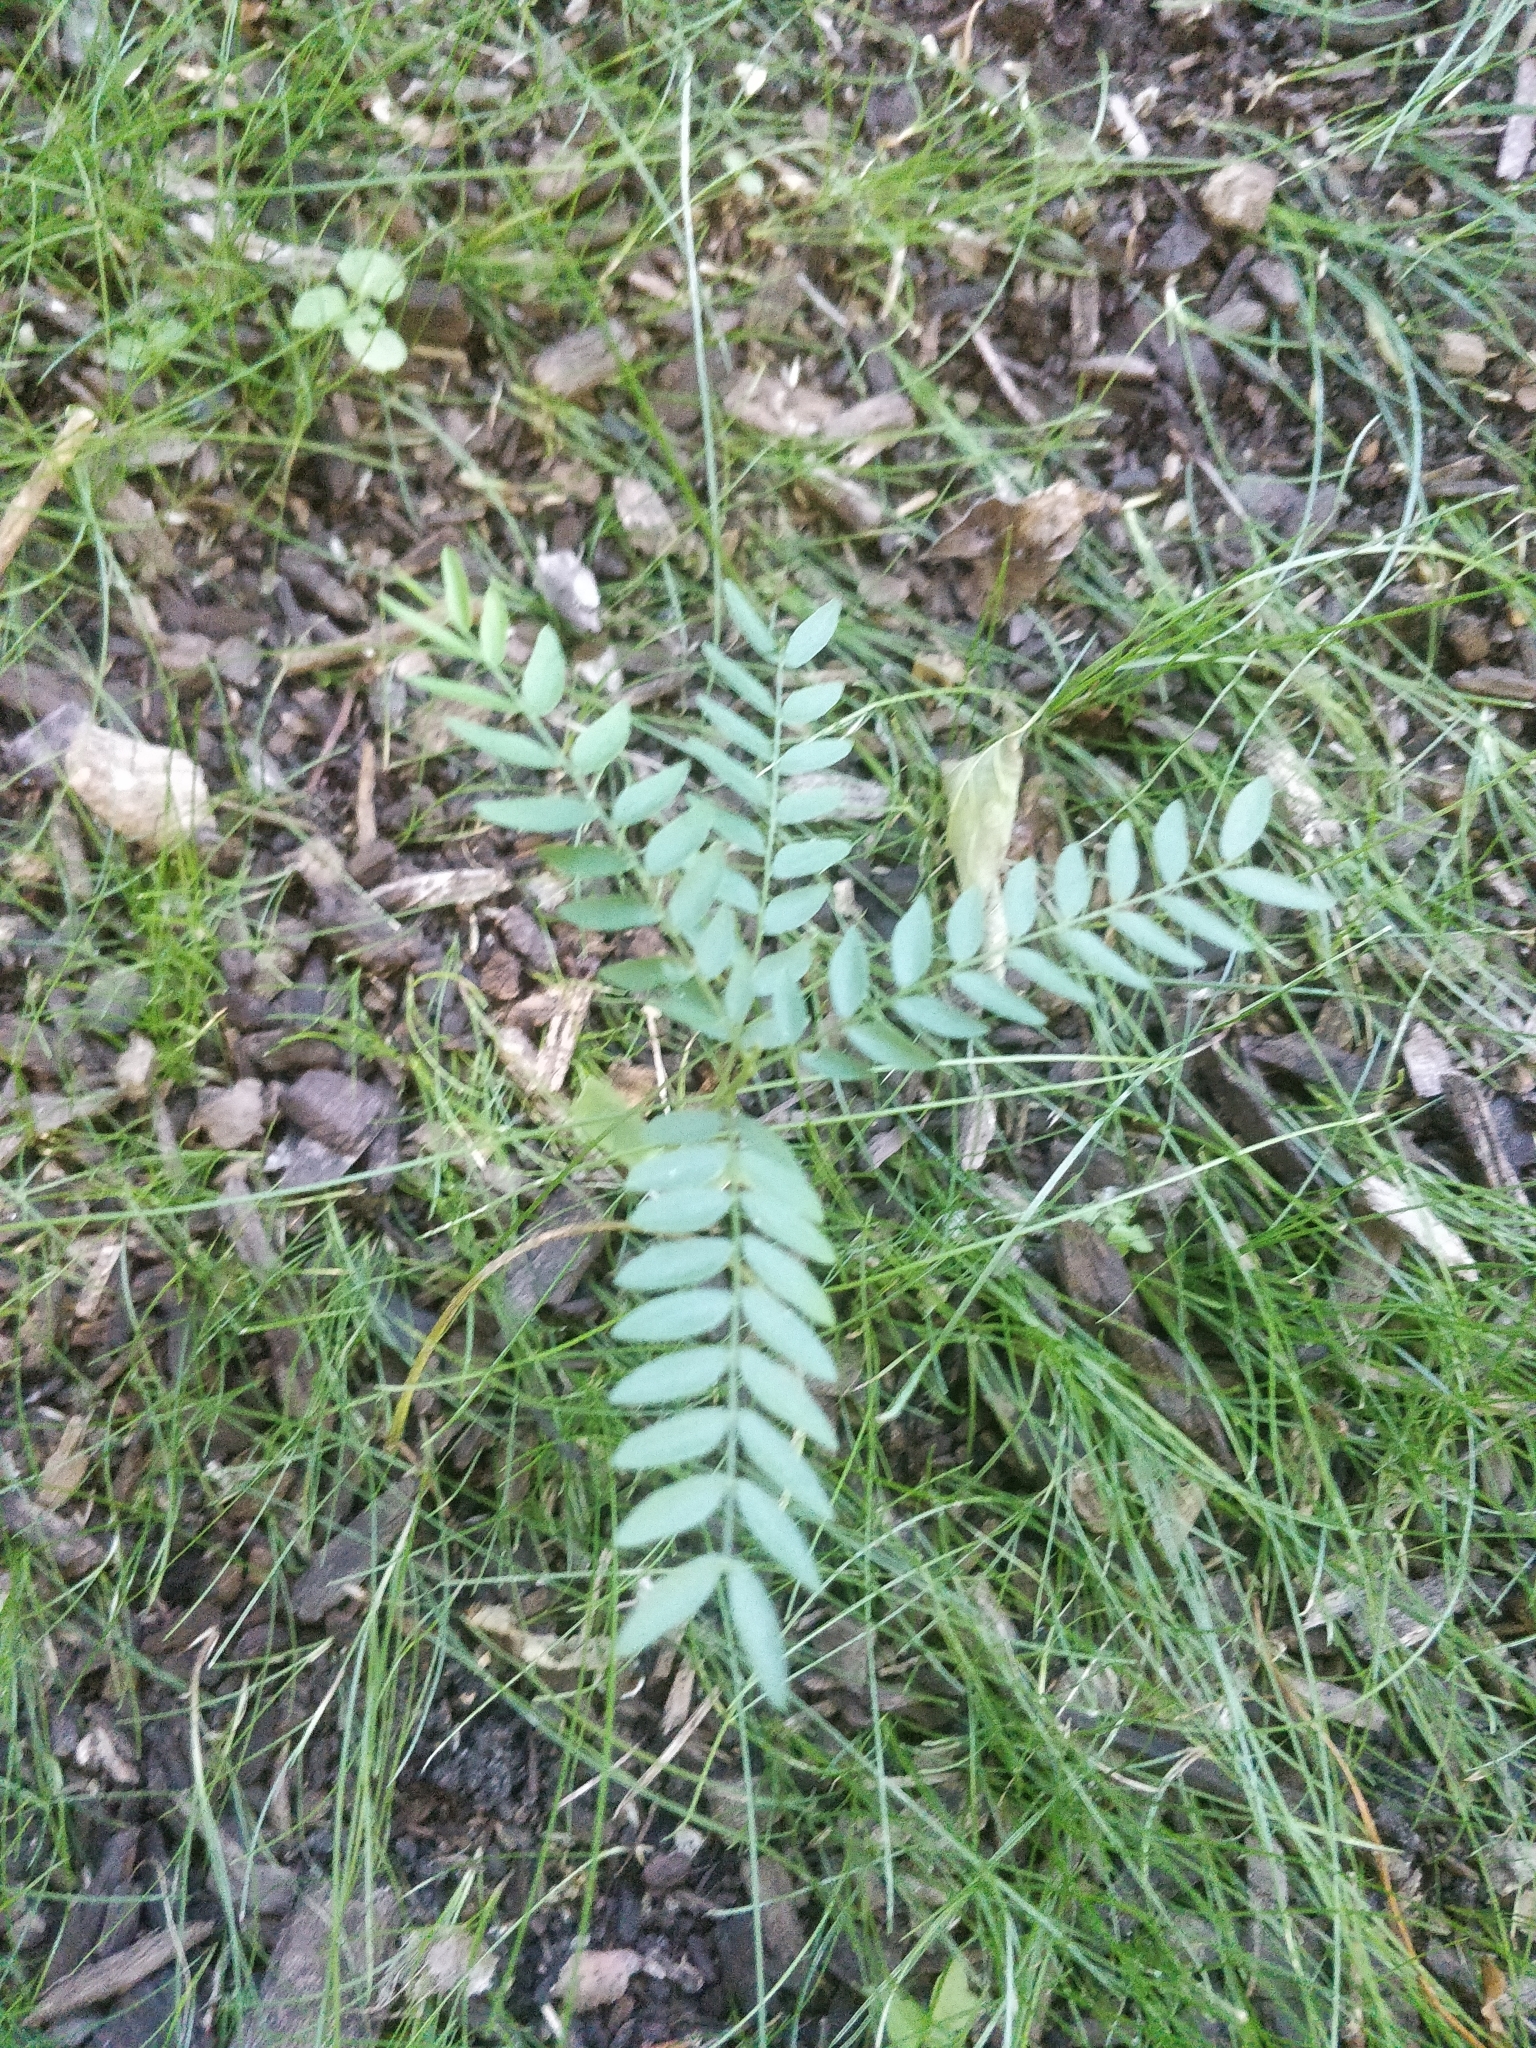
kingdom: Plantae
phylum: Tracheophyta
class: Magnoliopsida
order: Fabales
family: Fabaceae
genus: Gleditsia
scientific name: Gleditsia triacanthos
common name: Common honeylocust
